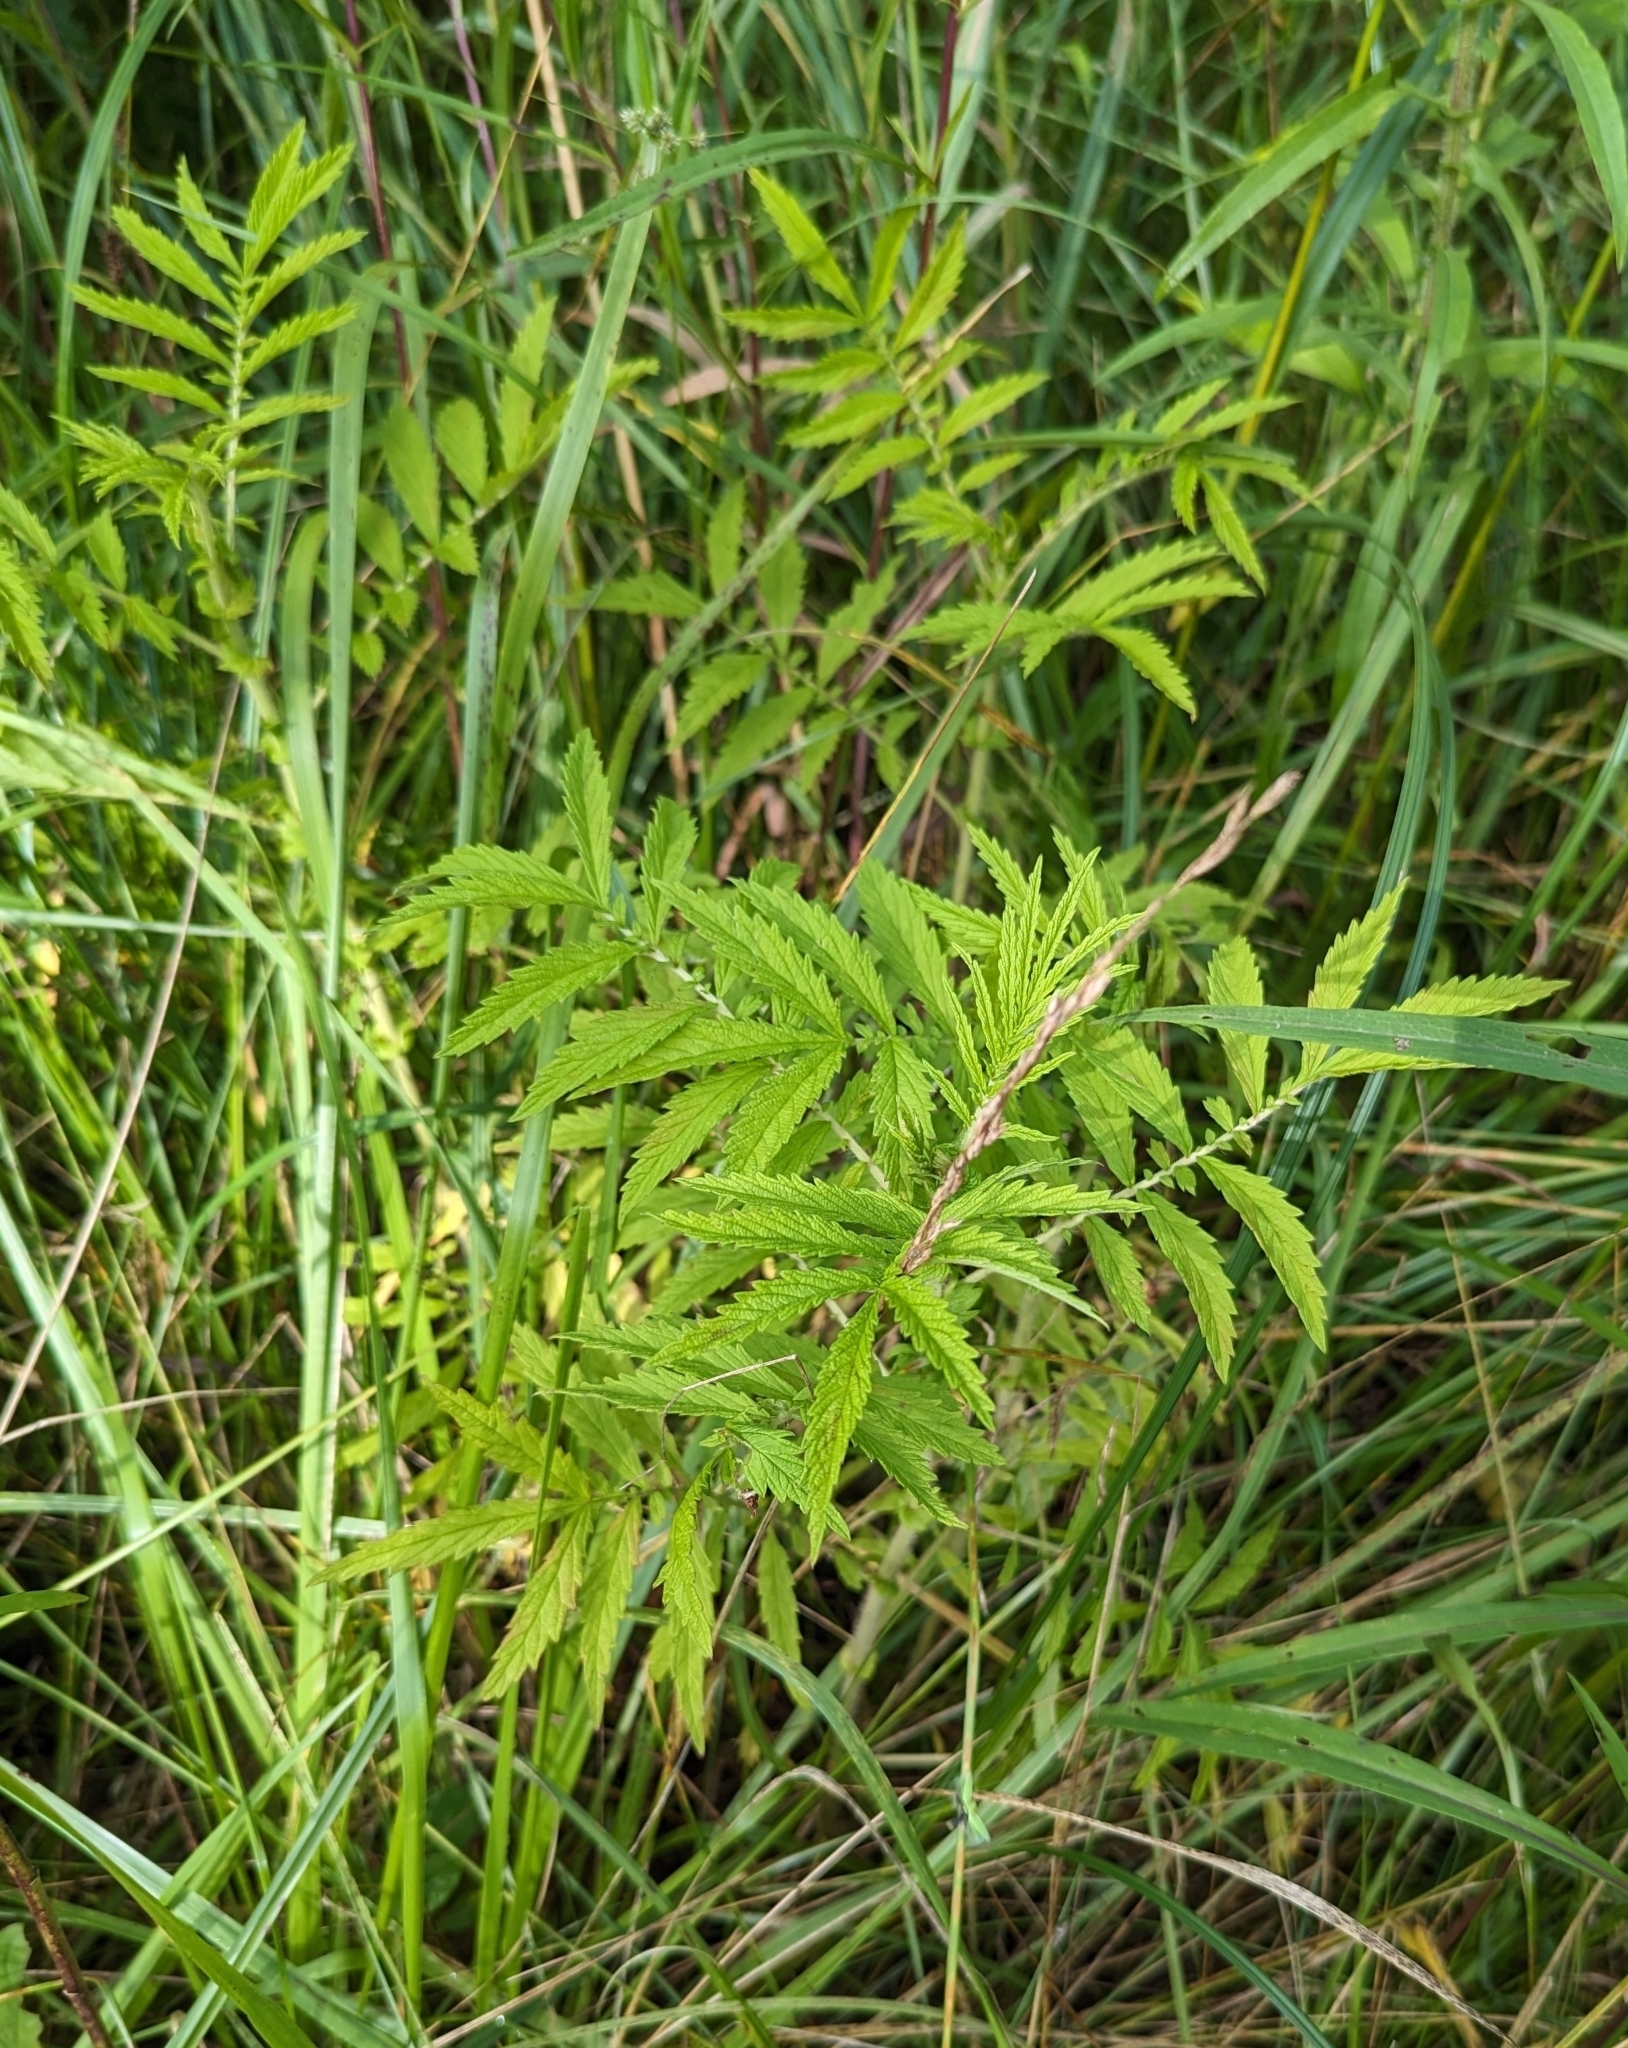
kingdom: Plantae
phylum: Tracheophyta
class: Magnoliopsida
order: Rosales
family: Rosaceae
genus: Agrimonia
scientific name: Agrimonia parviflora
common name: Harvest-lice
